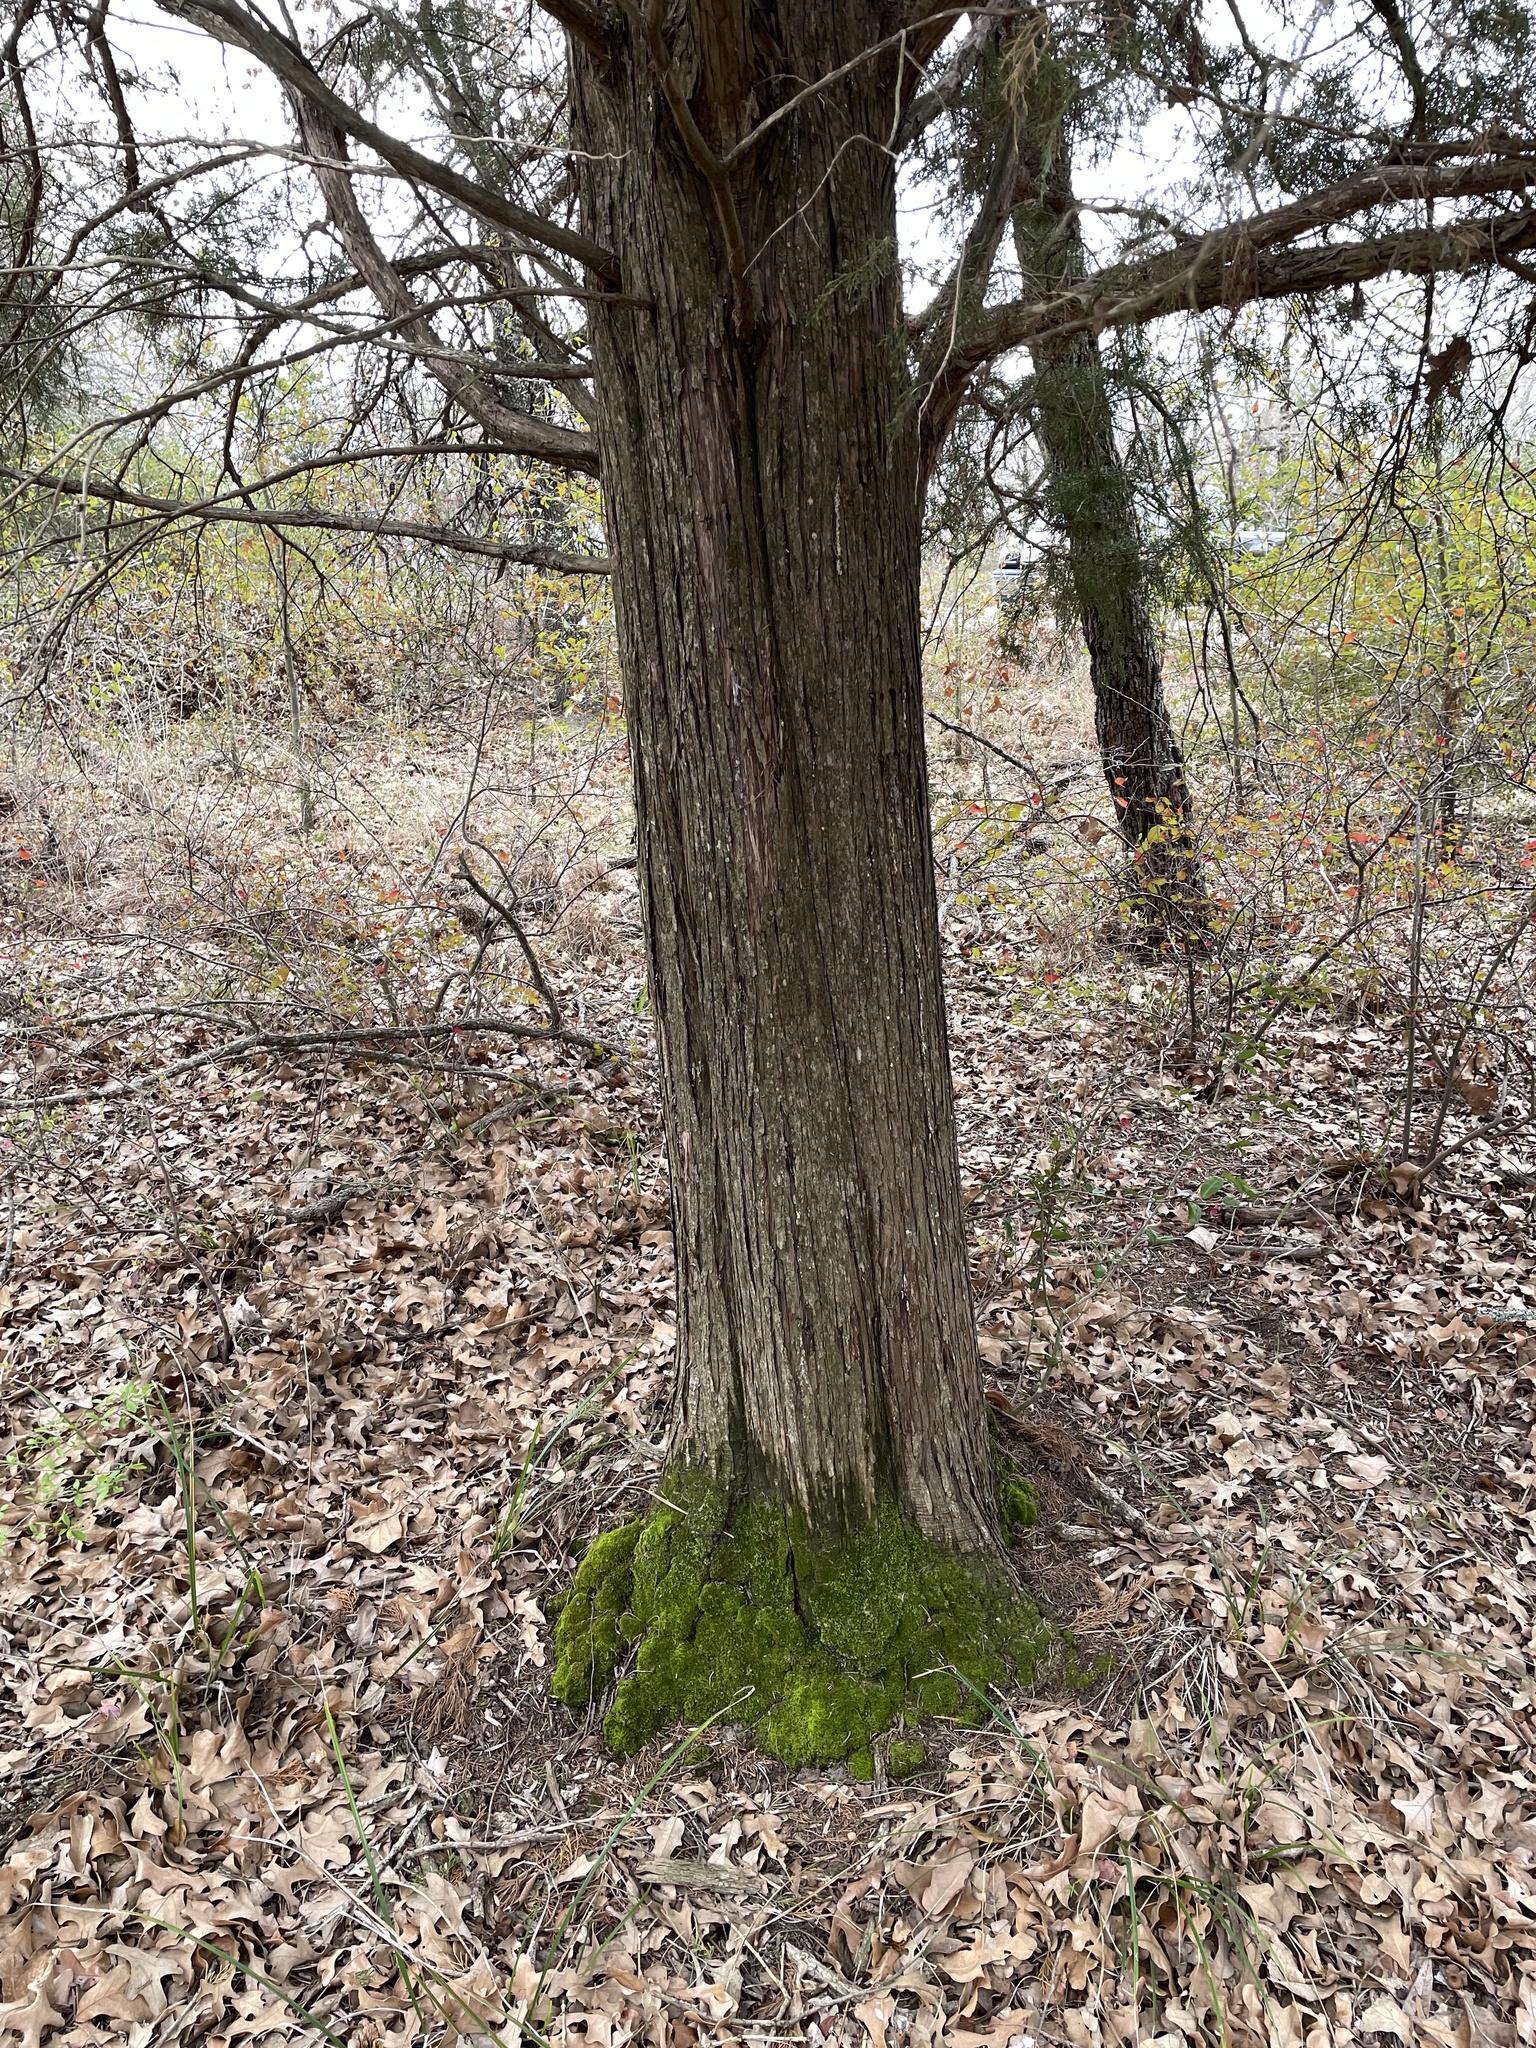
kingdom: Plantae
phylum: Tracheophyta
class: Pinopsida
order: Pinales
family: Cupressaceae
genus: Juniperus
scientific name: Juniperus virginiana
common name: Red juniper
